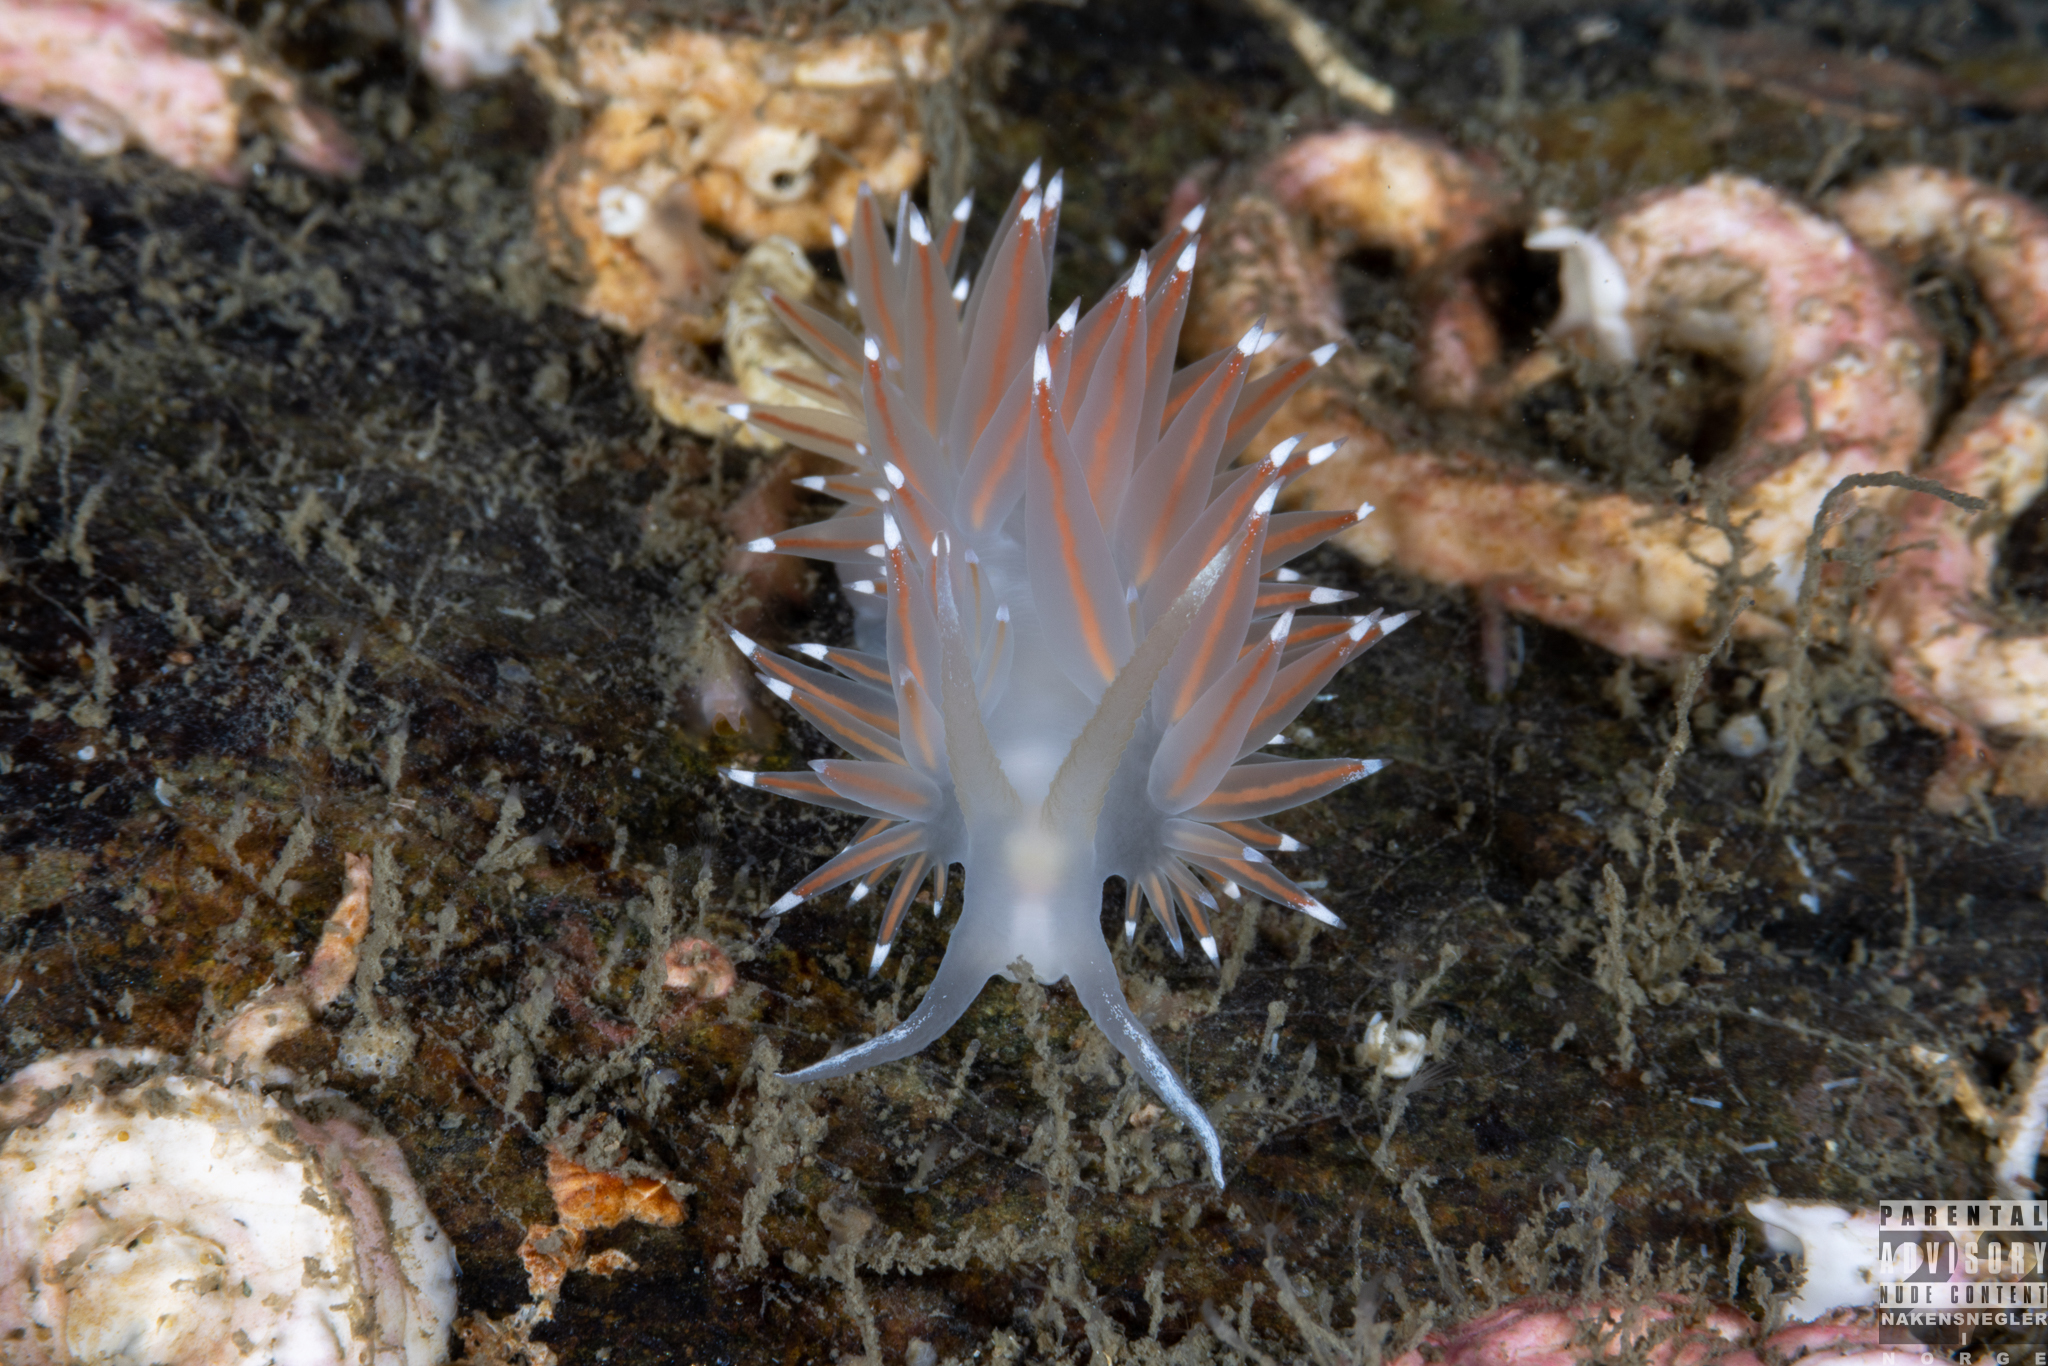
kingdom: Animalia
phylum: Mollusca
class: Gastropoda
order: Nudibranchia
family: Coryphellidae
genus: Coryphella
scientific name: Coryphella browni
